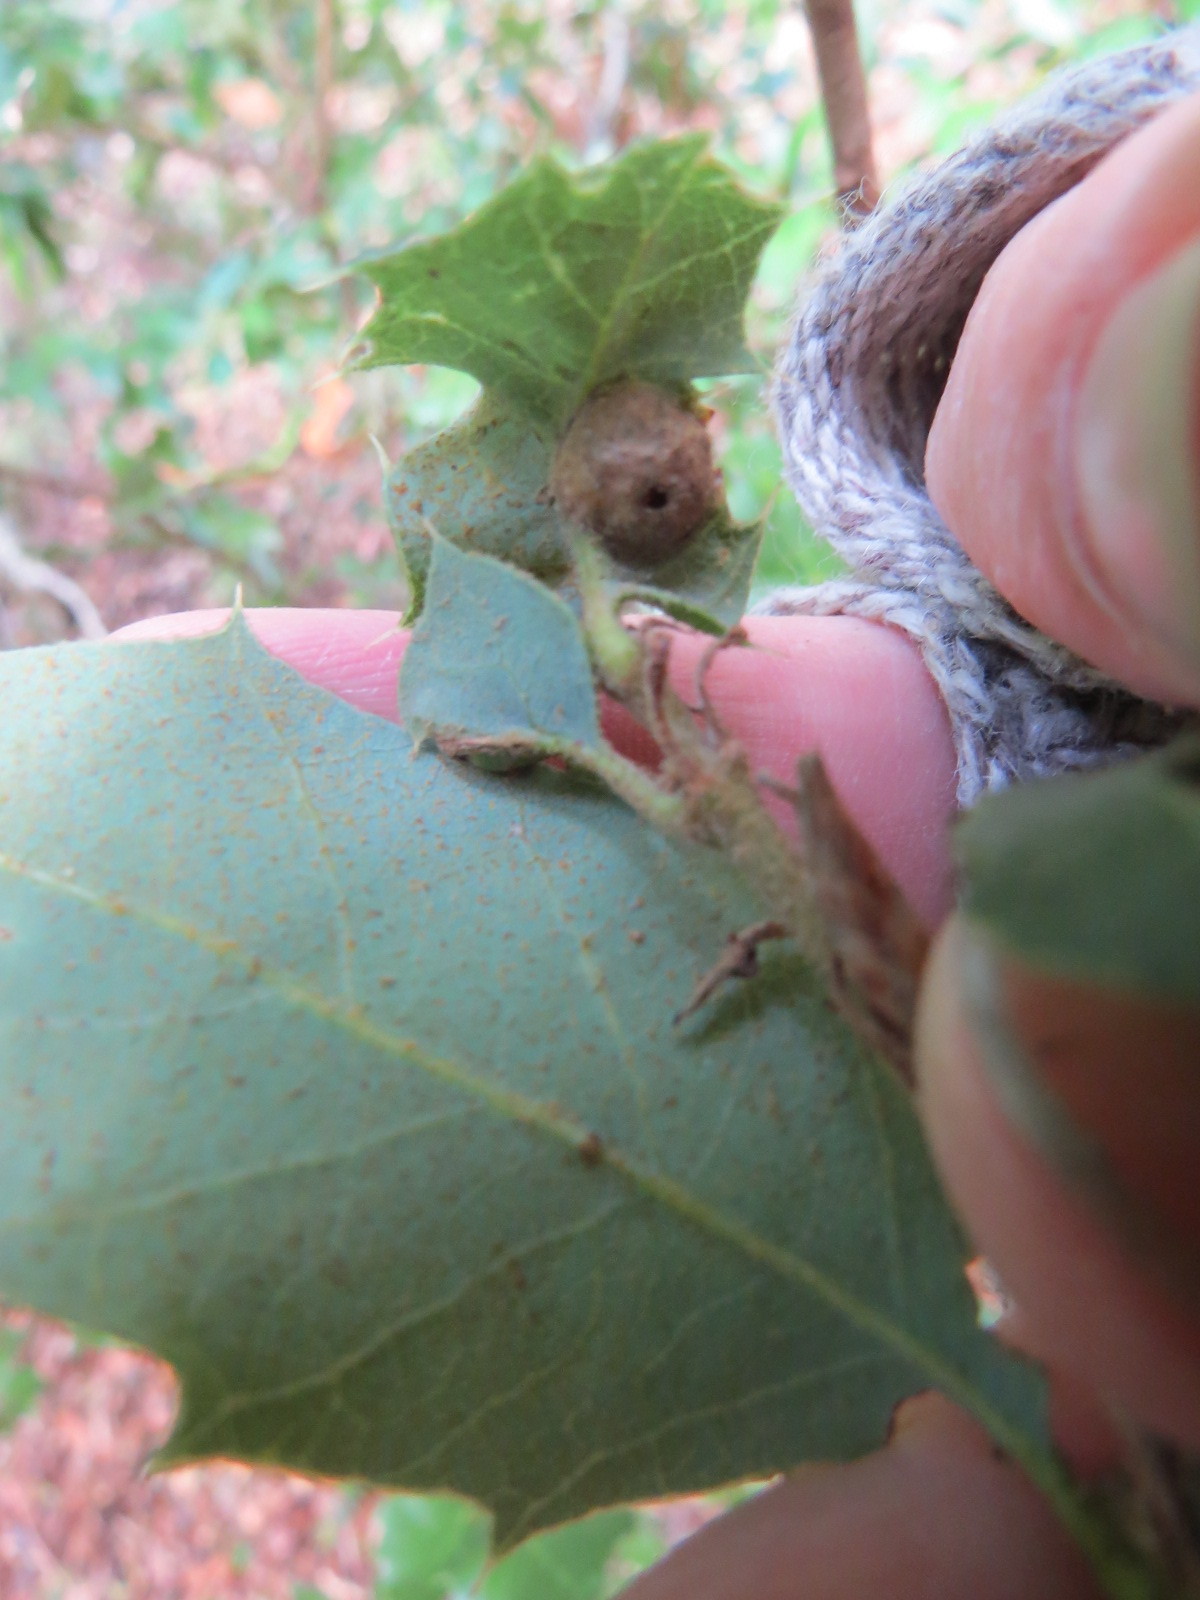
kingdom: Animalia
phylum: Arthropoda
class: Insecta
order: Hymenoptera
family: Cynipidae
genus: Heteroecus
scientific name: Heteroecus
